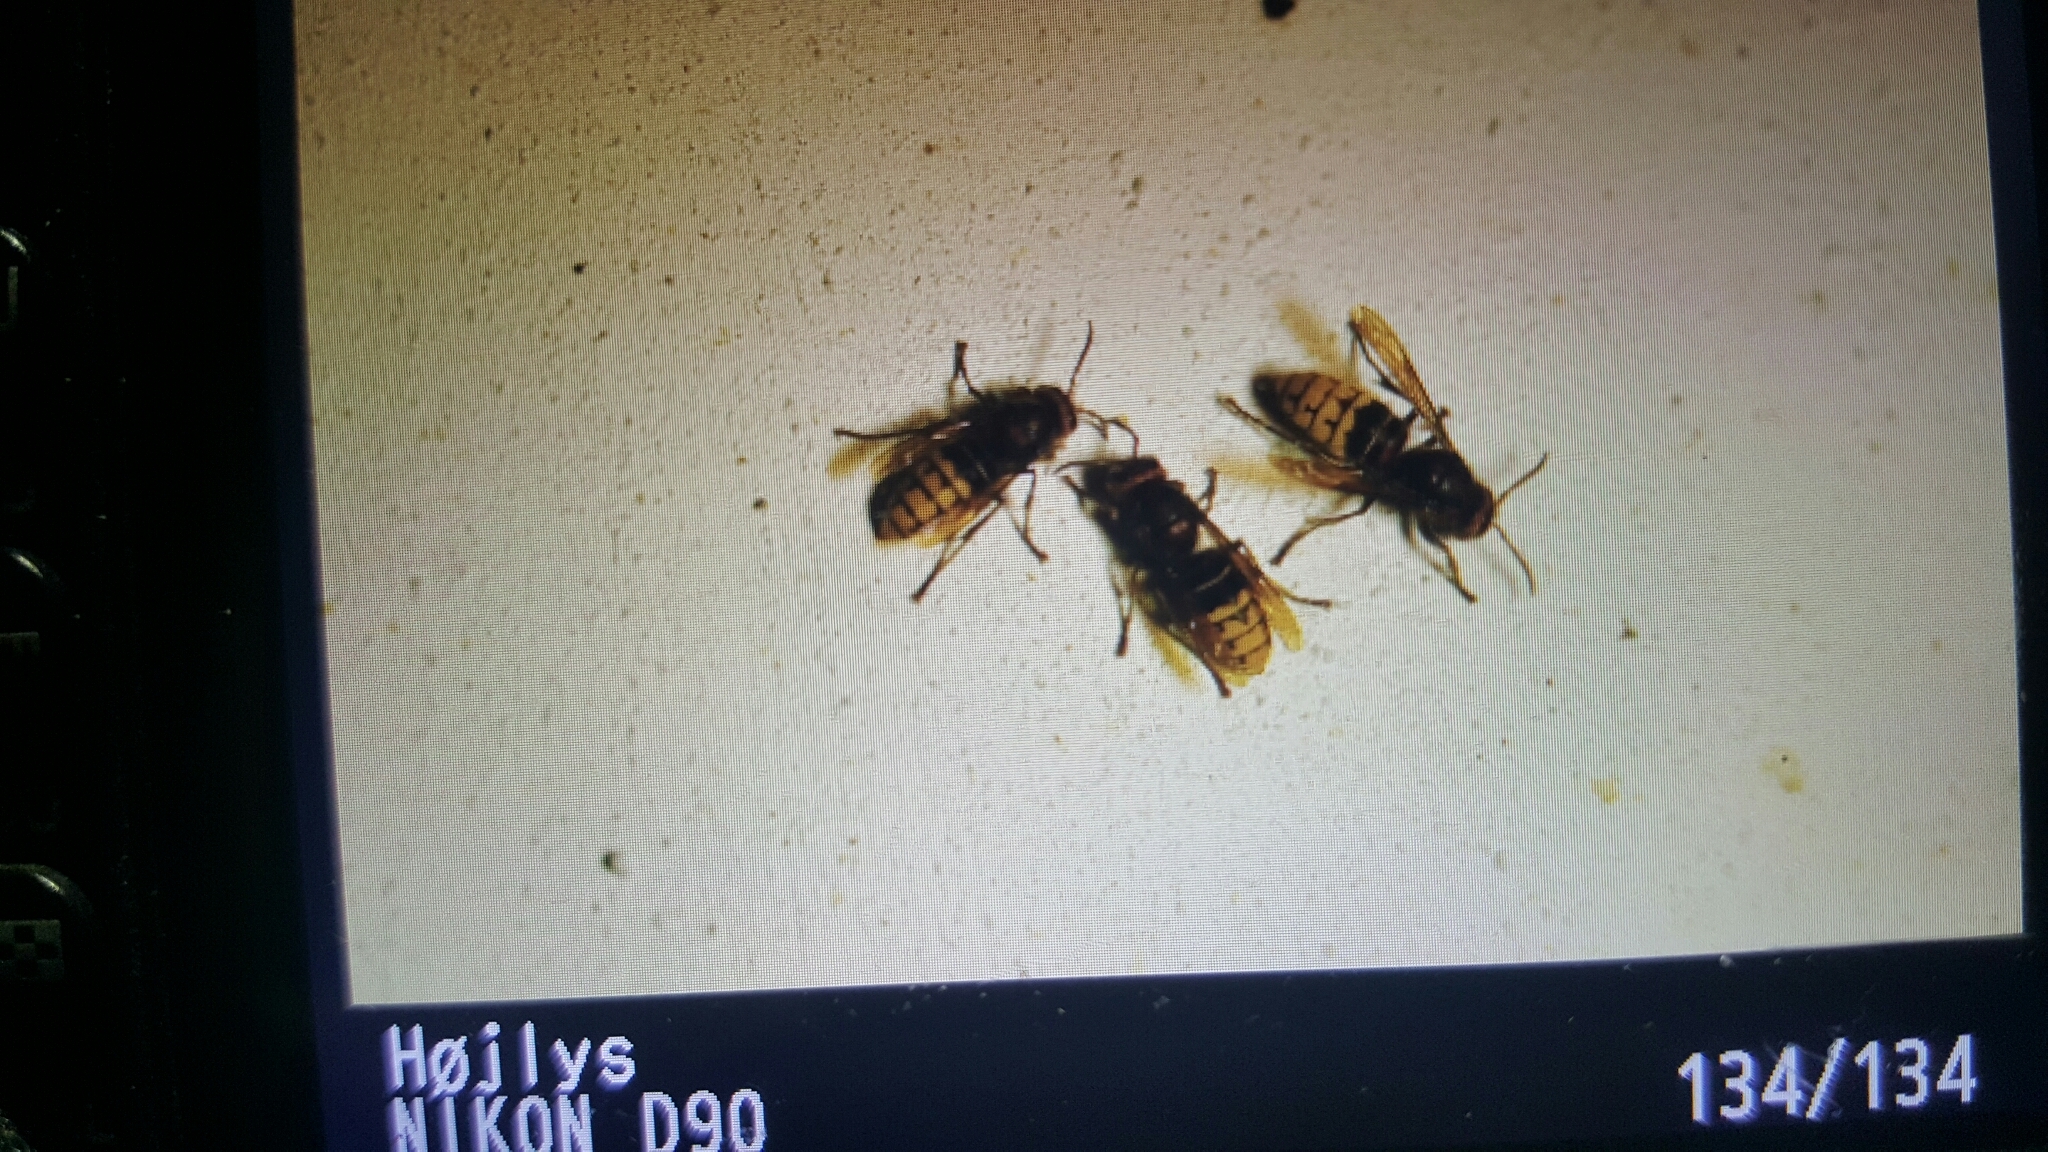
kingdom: Animalia
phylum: Arthropoda
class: Insecta
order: Hymenoptera
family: Vespidae
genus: Vespa
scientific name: Vespa crabro
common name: Hornet
